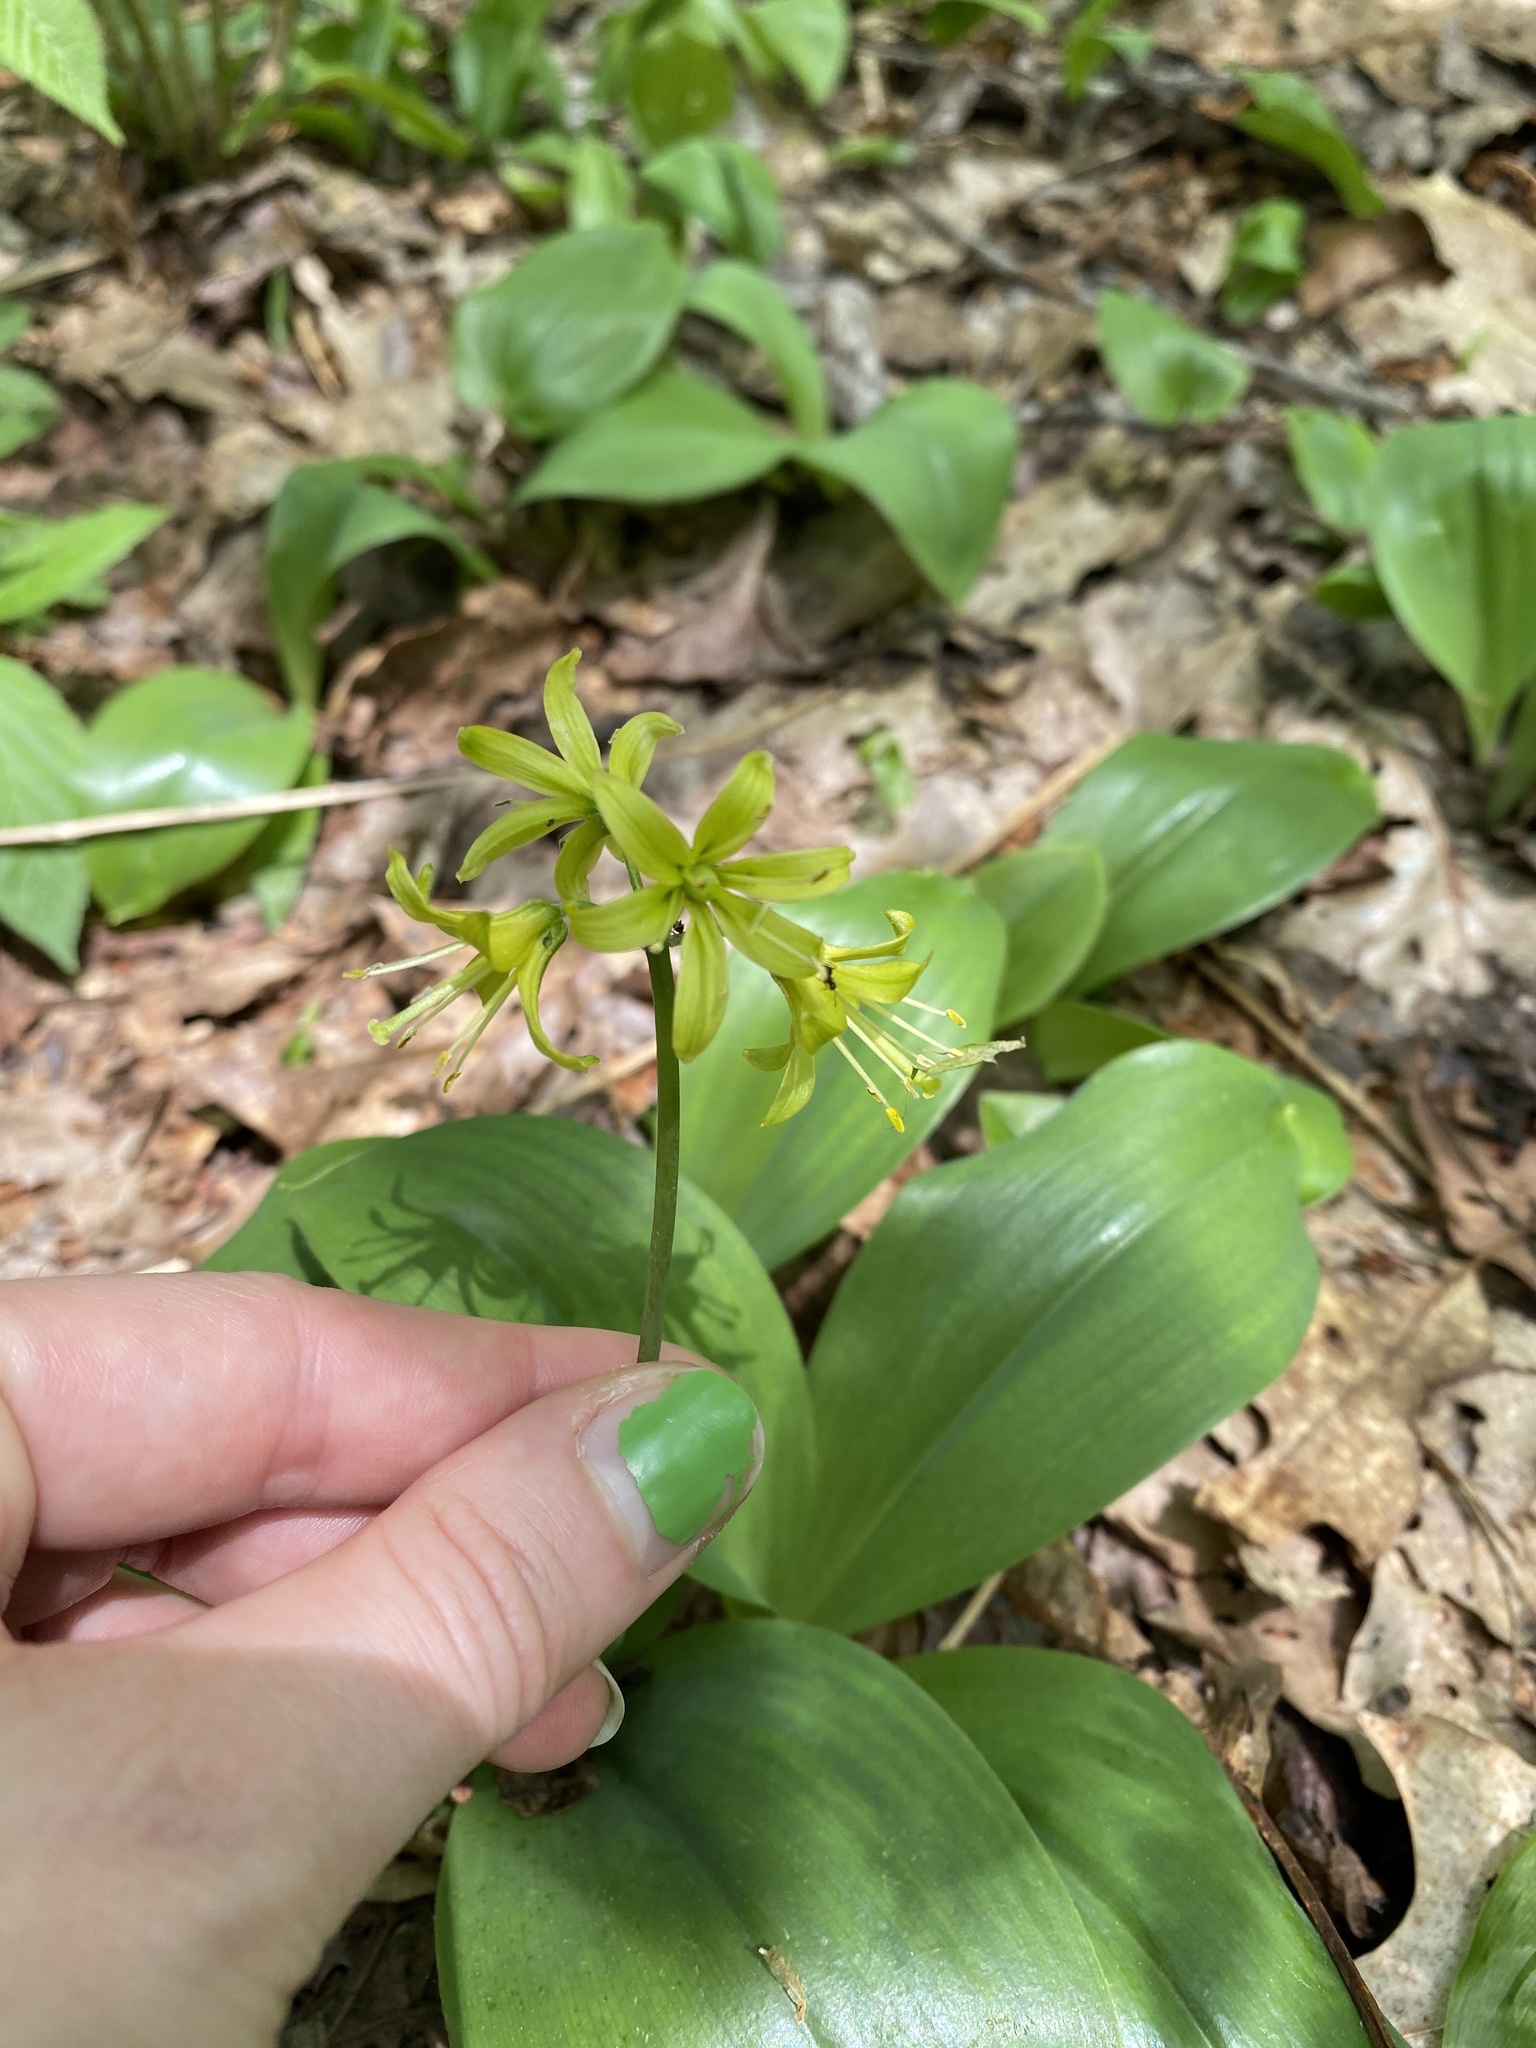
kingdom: Plantae
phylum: Tracheophyta
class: Liliopsida
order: Liliales
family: Liliaceae
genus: Clintonia
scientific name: Clintonia borealis
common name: Yellow clintonia
